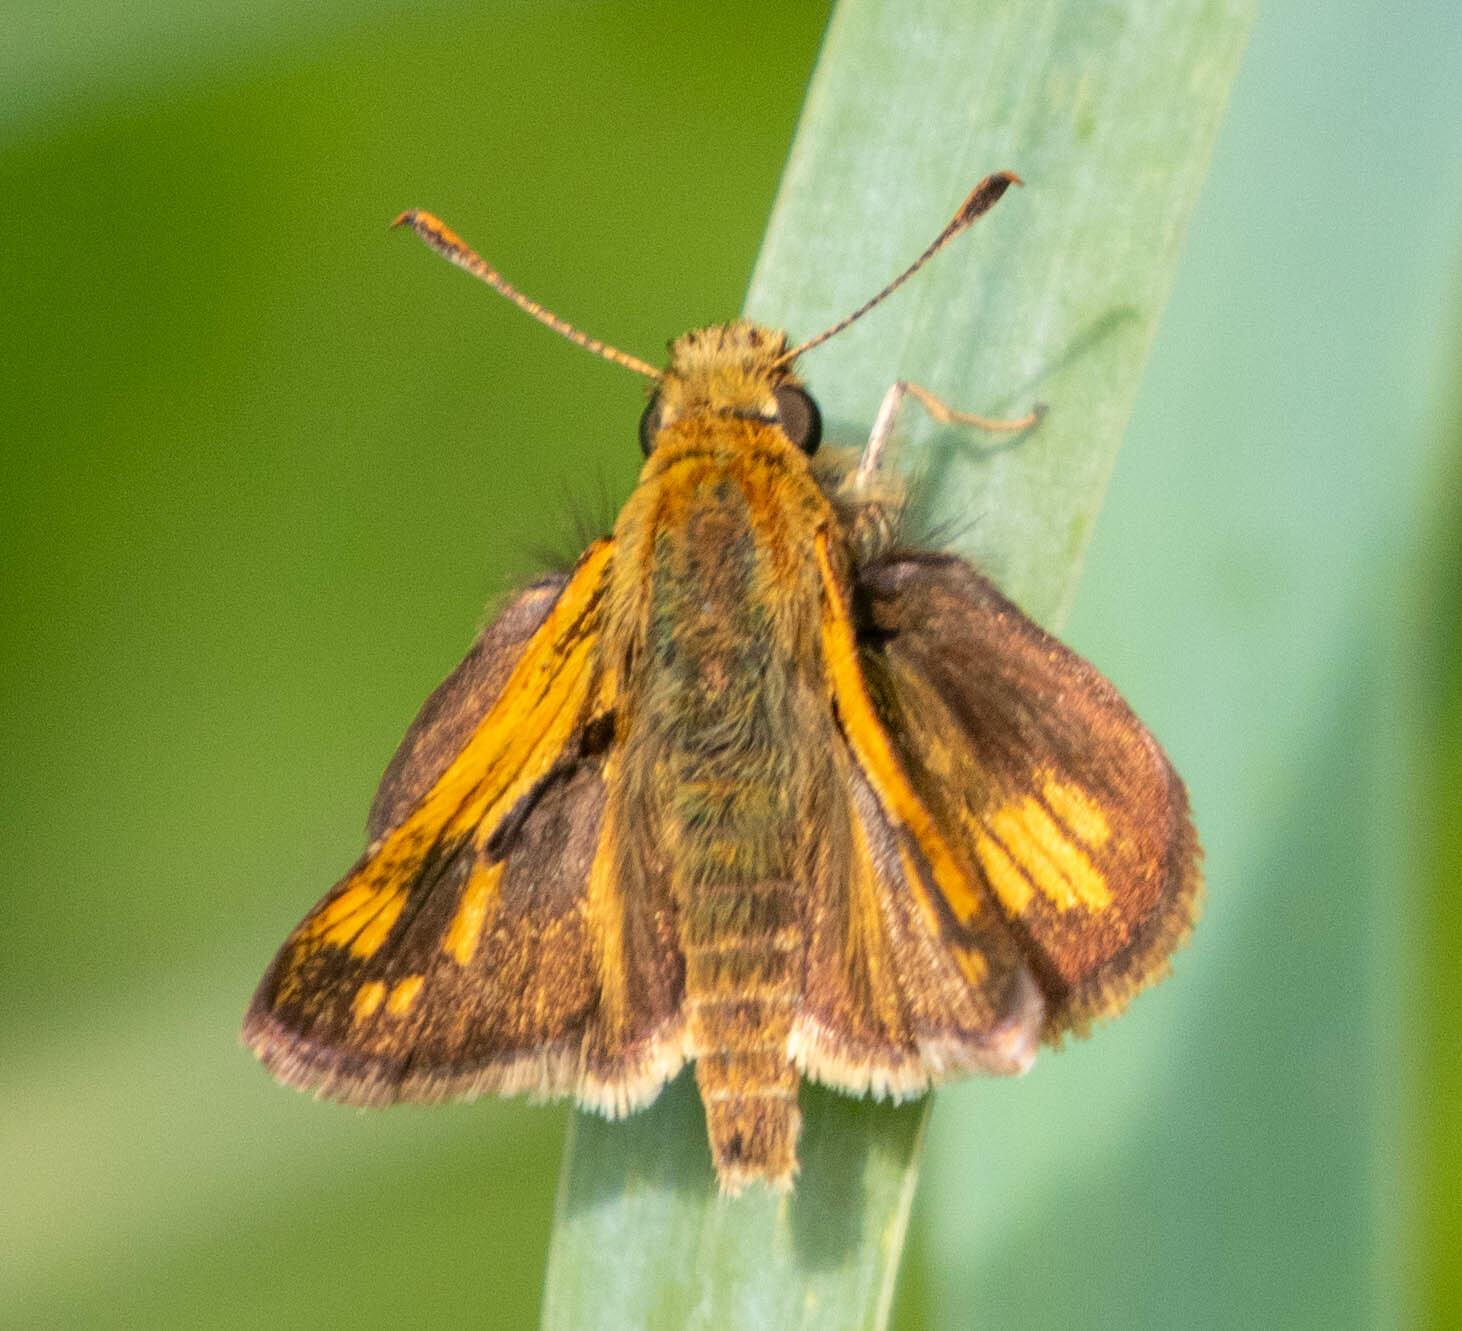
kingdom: Animalia
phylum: Arthropoda
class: Insecta
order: Lepidoptera
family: Hesperiidae
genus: Polites
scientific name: Polites coras
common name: Peck's skipper
